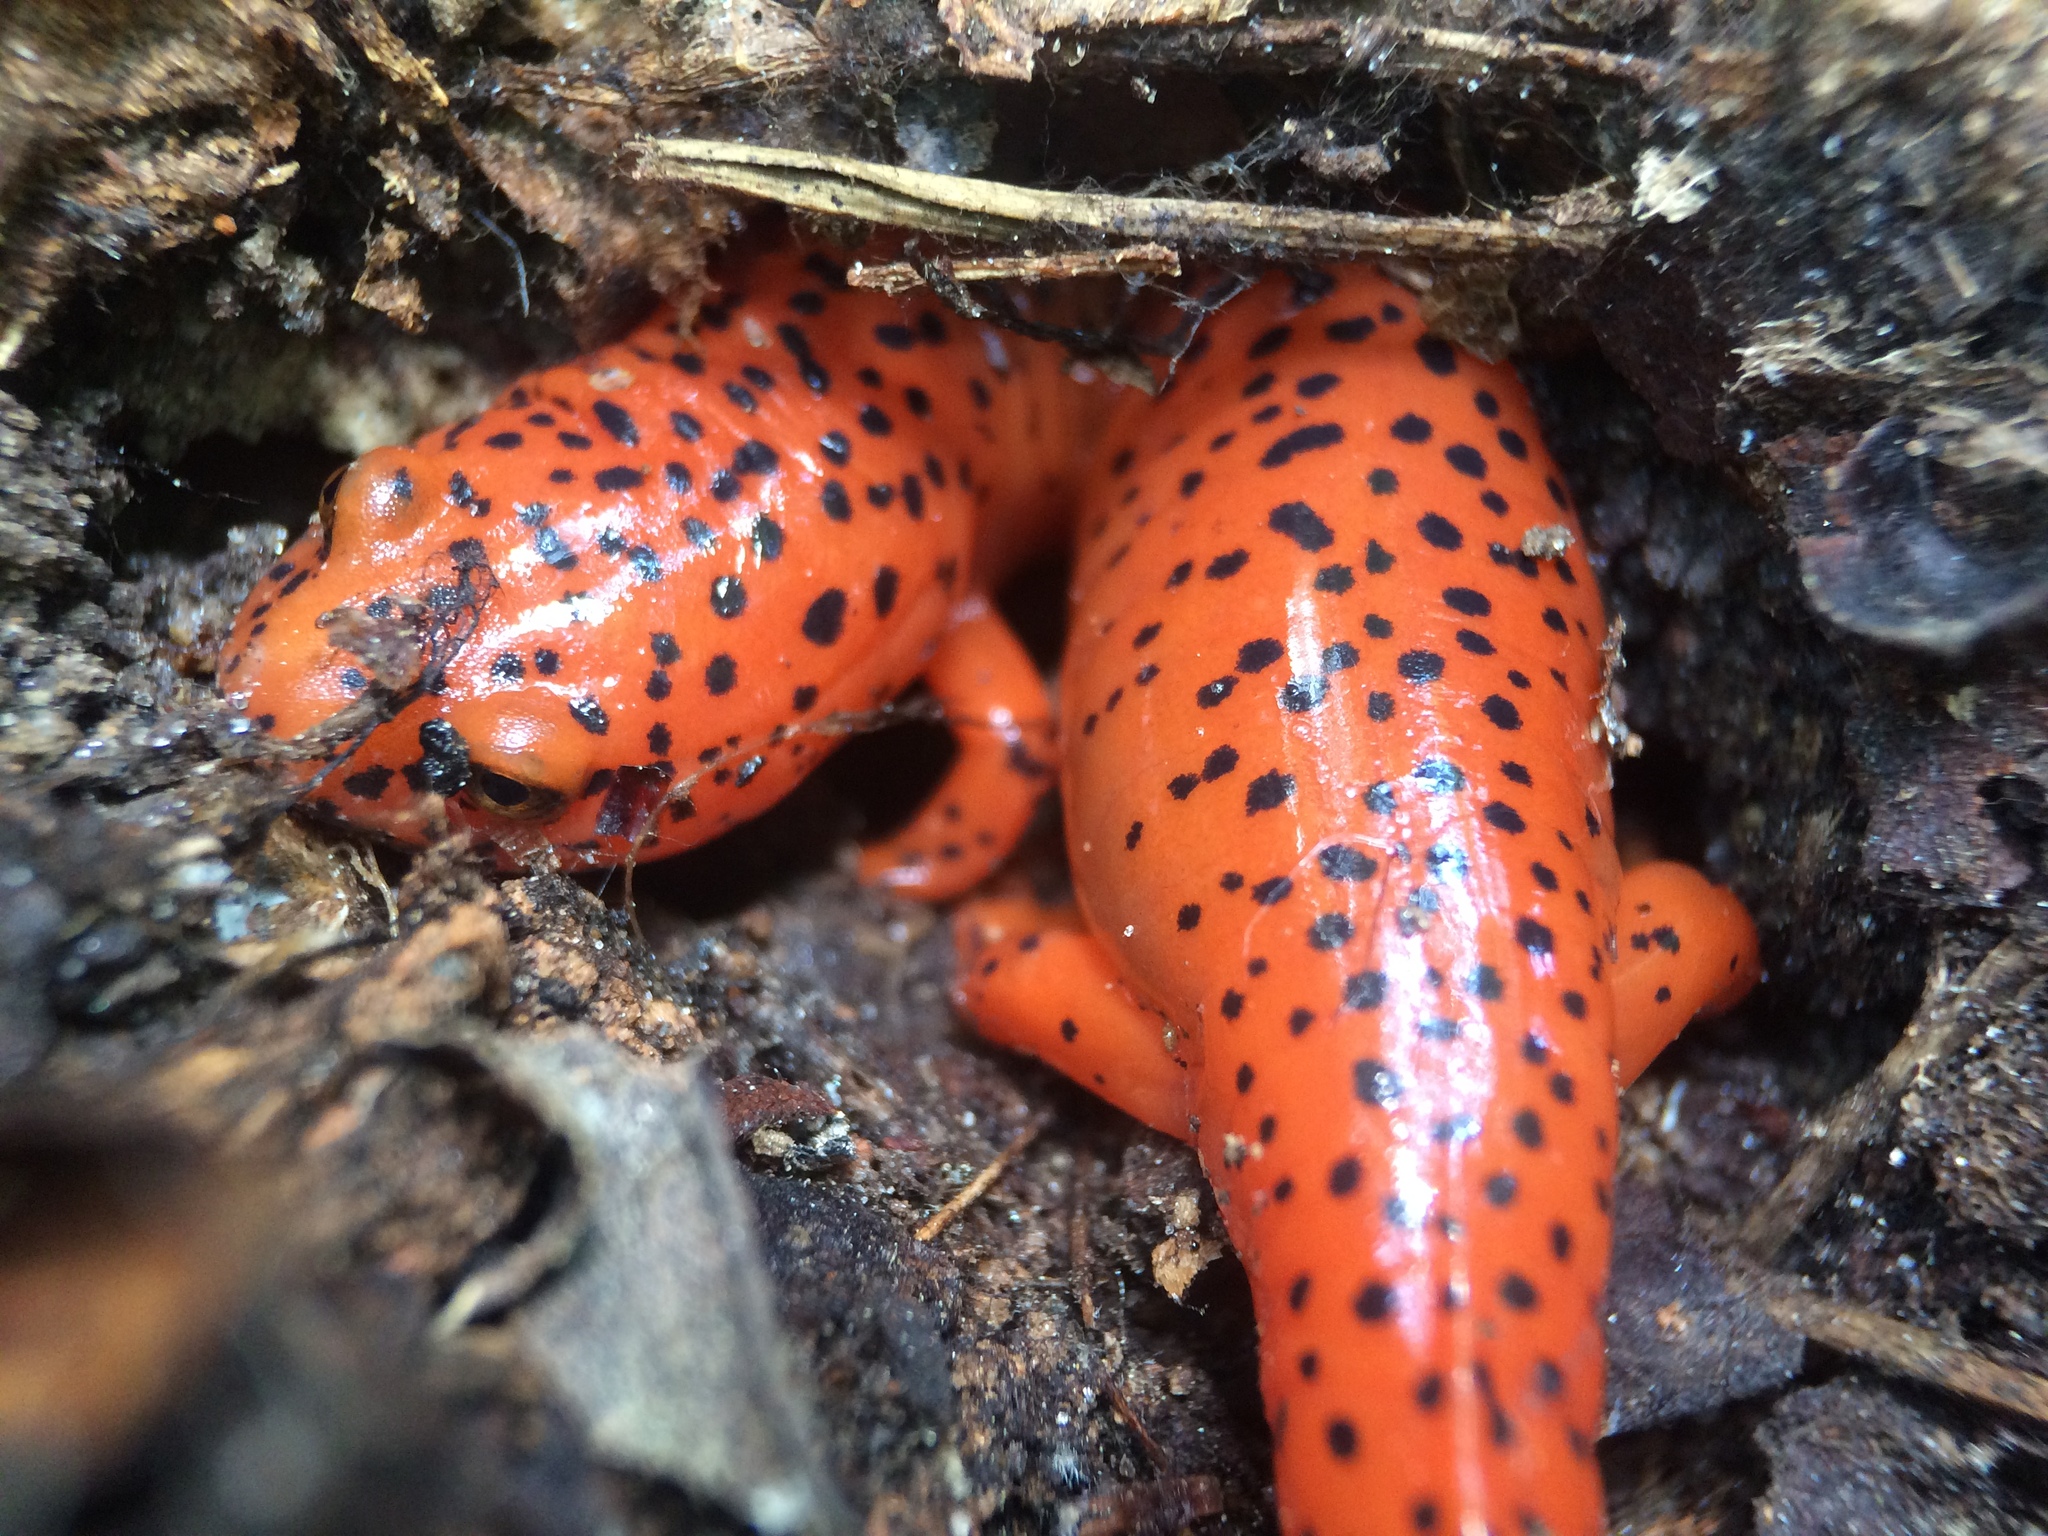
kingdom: Animalia
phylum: Chordata
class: Amphibia
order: Caudata
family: Plethodontidae
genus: Pseudotriton
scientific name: Pseudotriton ruber
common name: Red salamander
